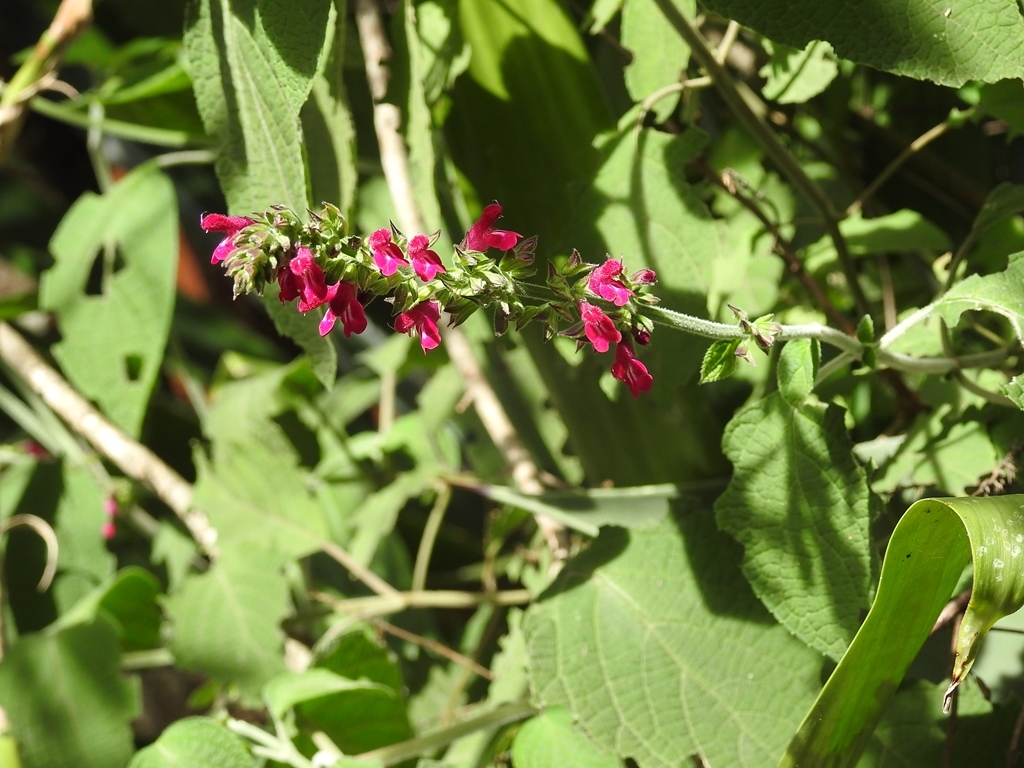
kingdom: Plantae
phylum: Tracheophyta
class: Magnoliopsida
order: Lamiales
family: Lamiaceae
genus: Salvia
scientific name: Salvia chiapensis
